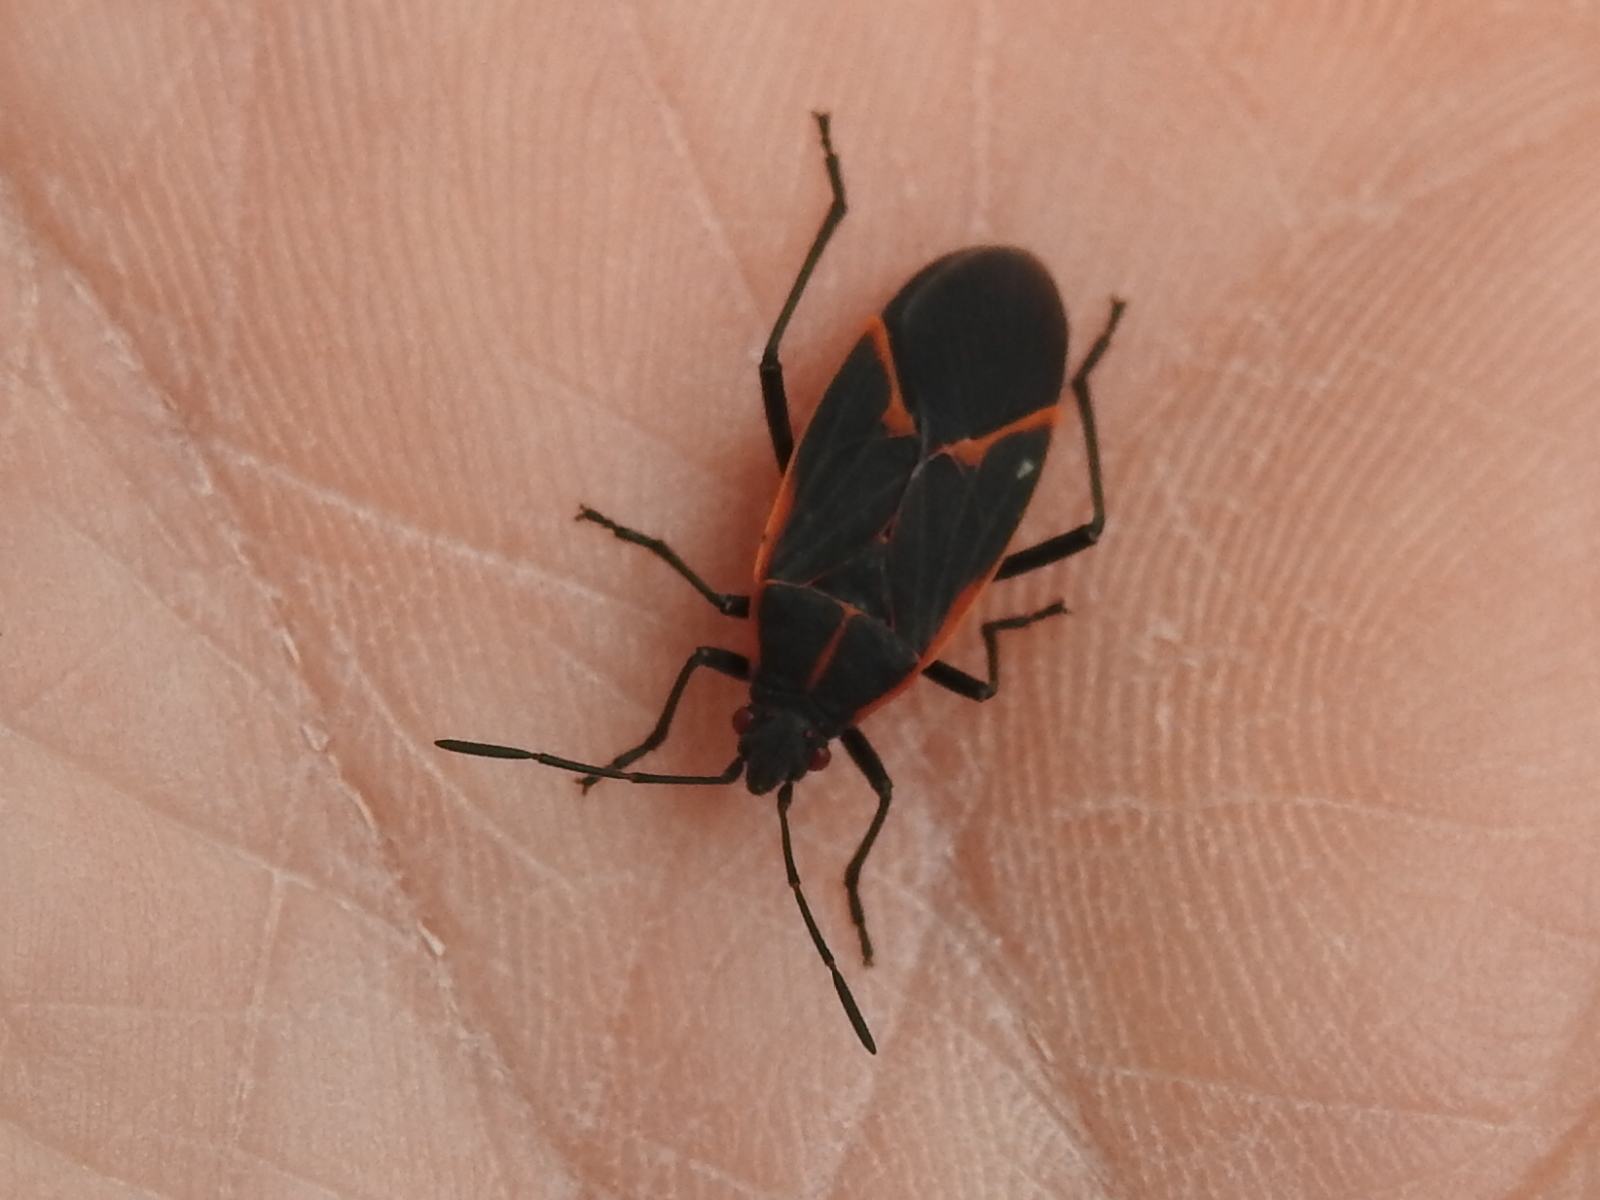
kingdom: Animalia
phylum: Arthropoda
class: Insecta
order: Hemiptera
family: Rhopalidae
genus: Boisea
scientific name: Boisea trivittata
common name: Boxelder bug
